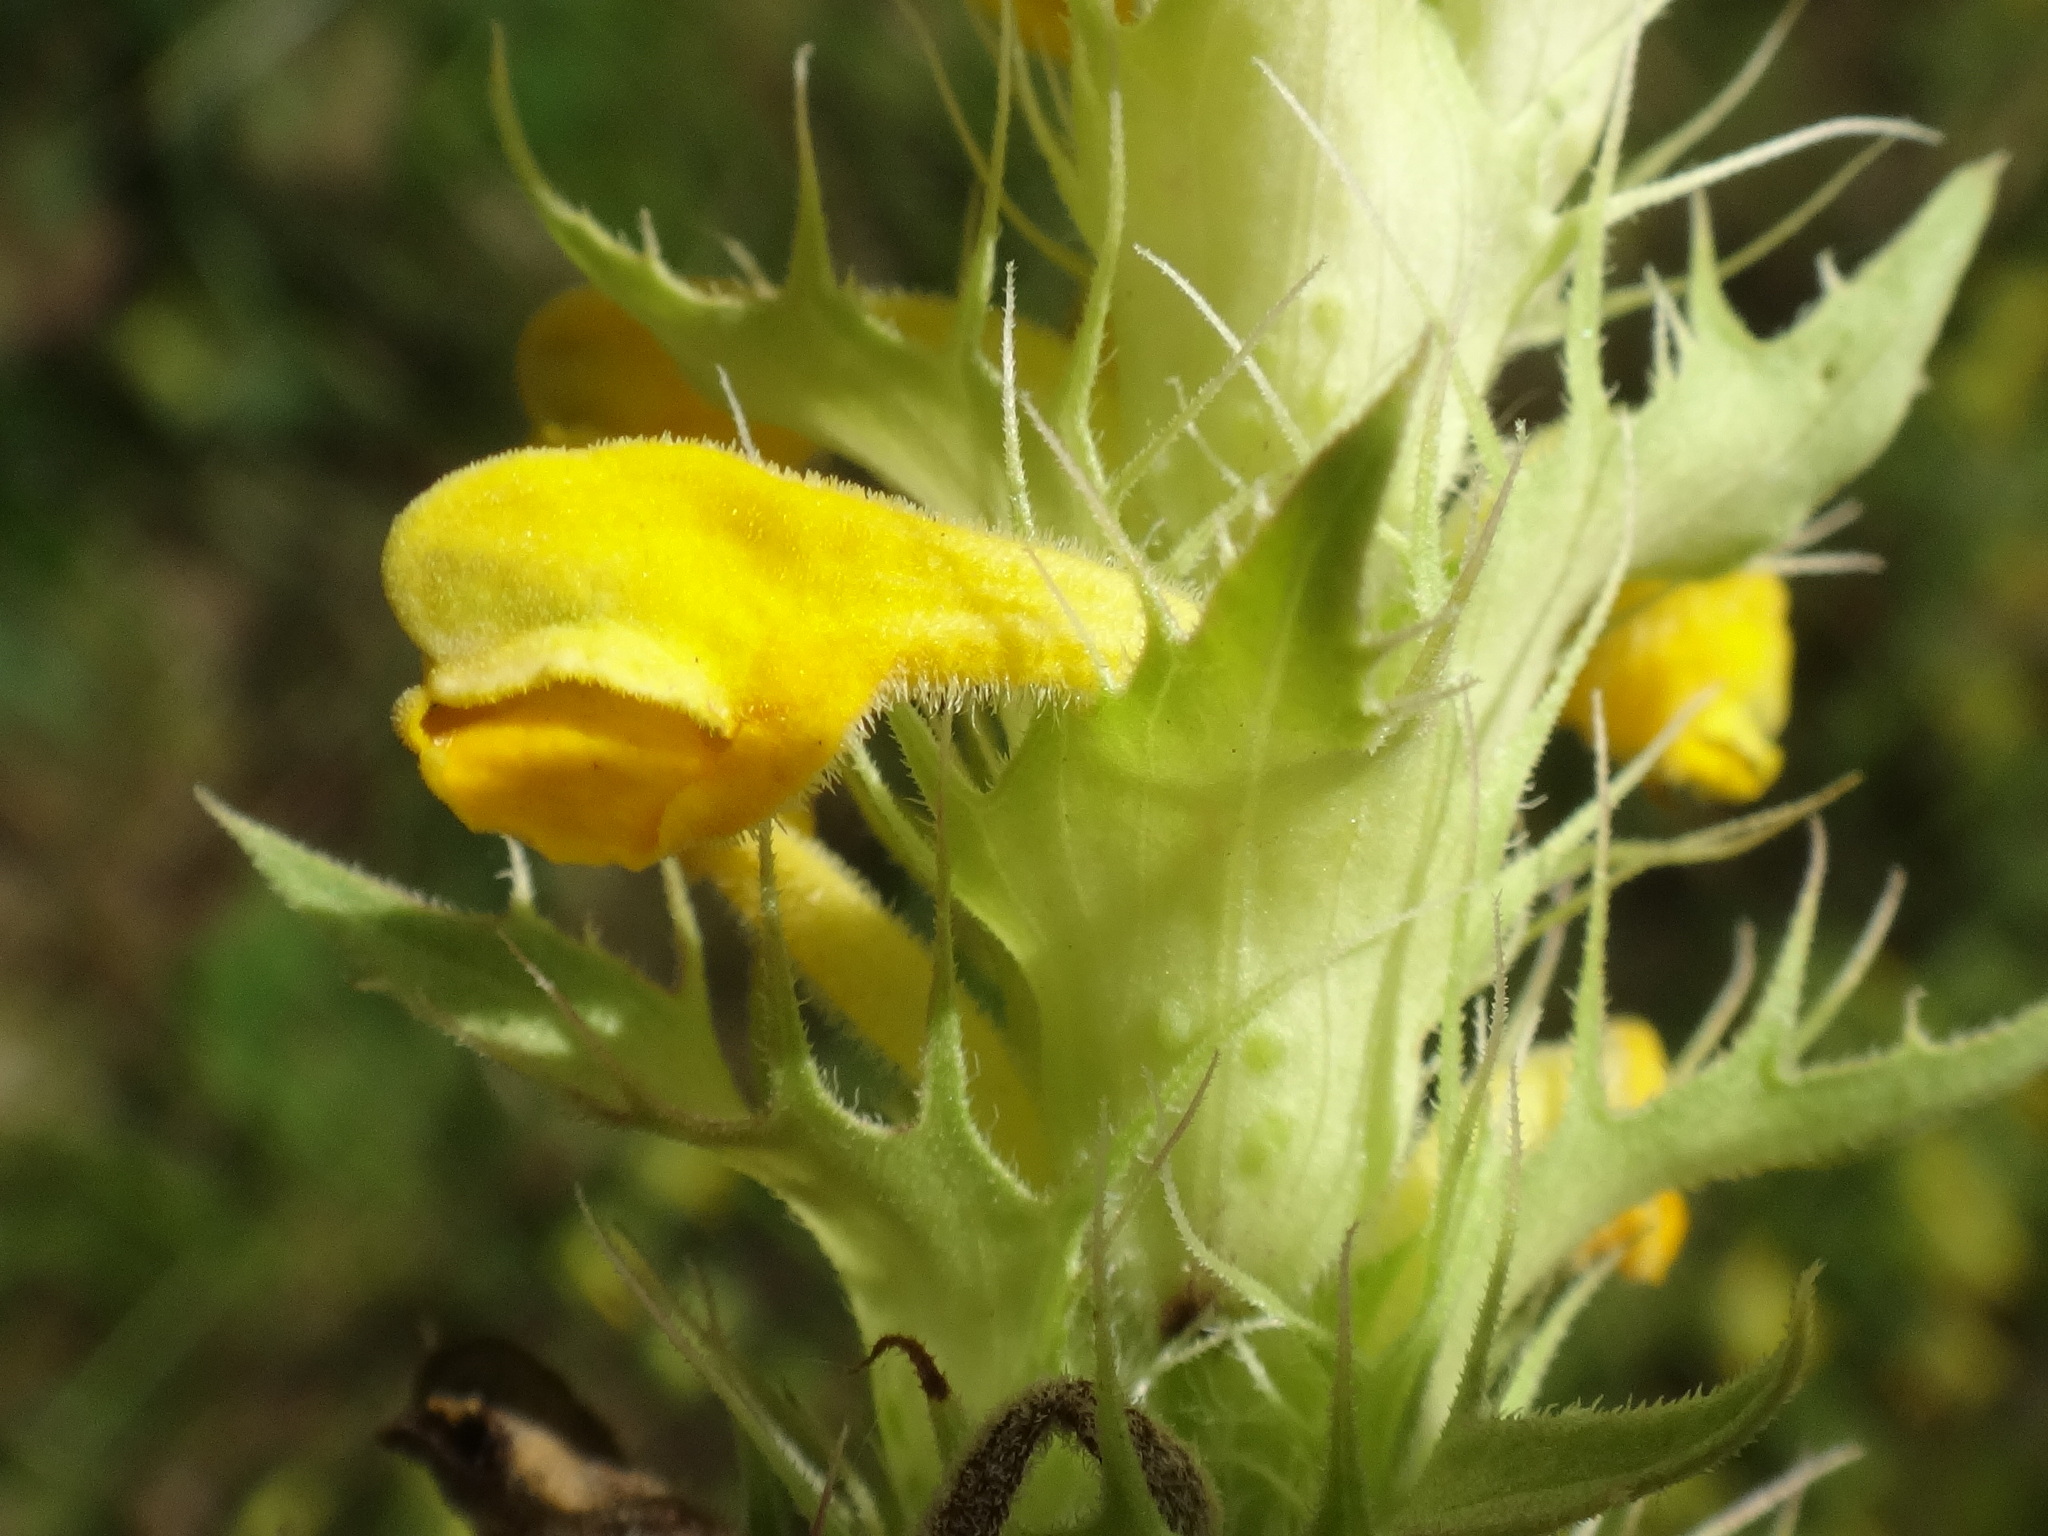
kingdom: Plantae
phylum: Tracheophyta
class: Magnoliopsida
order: Lamiales
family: Orobanchaceae
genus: Melampyrum
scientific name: Melampyrum barbatum
